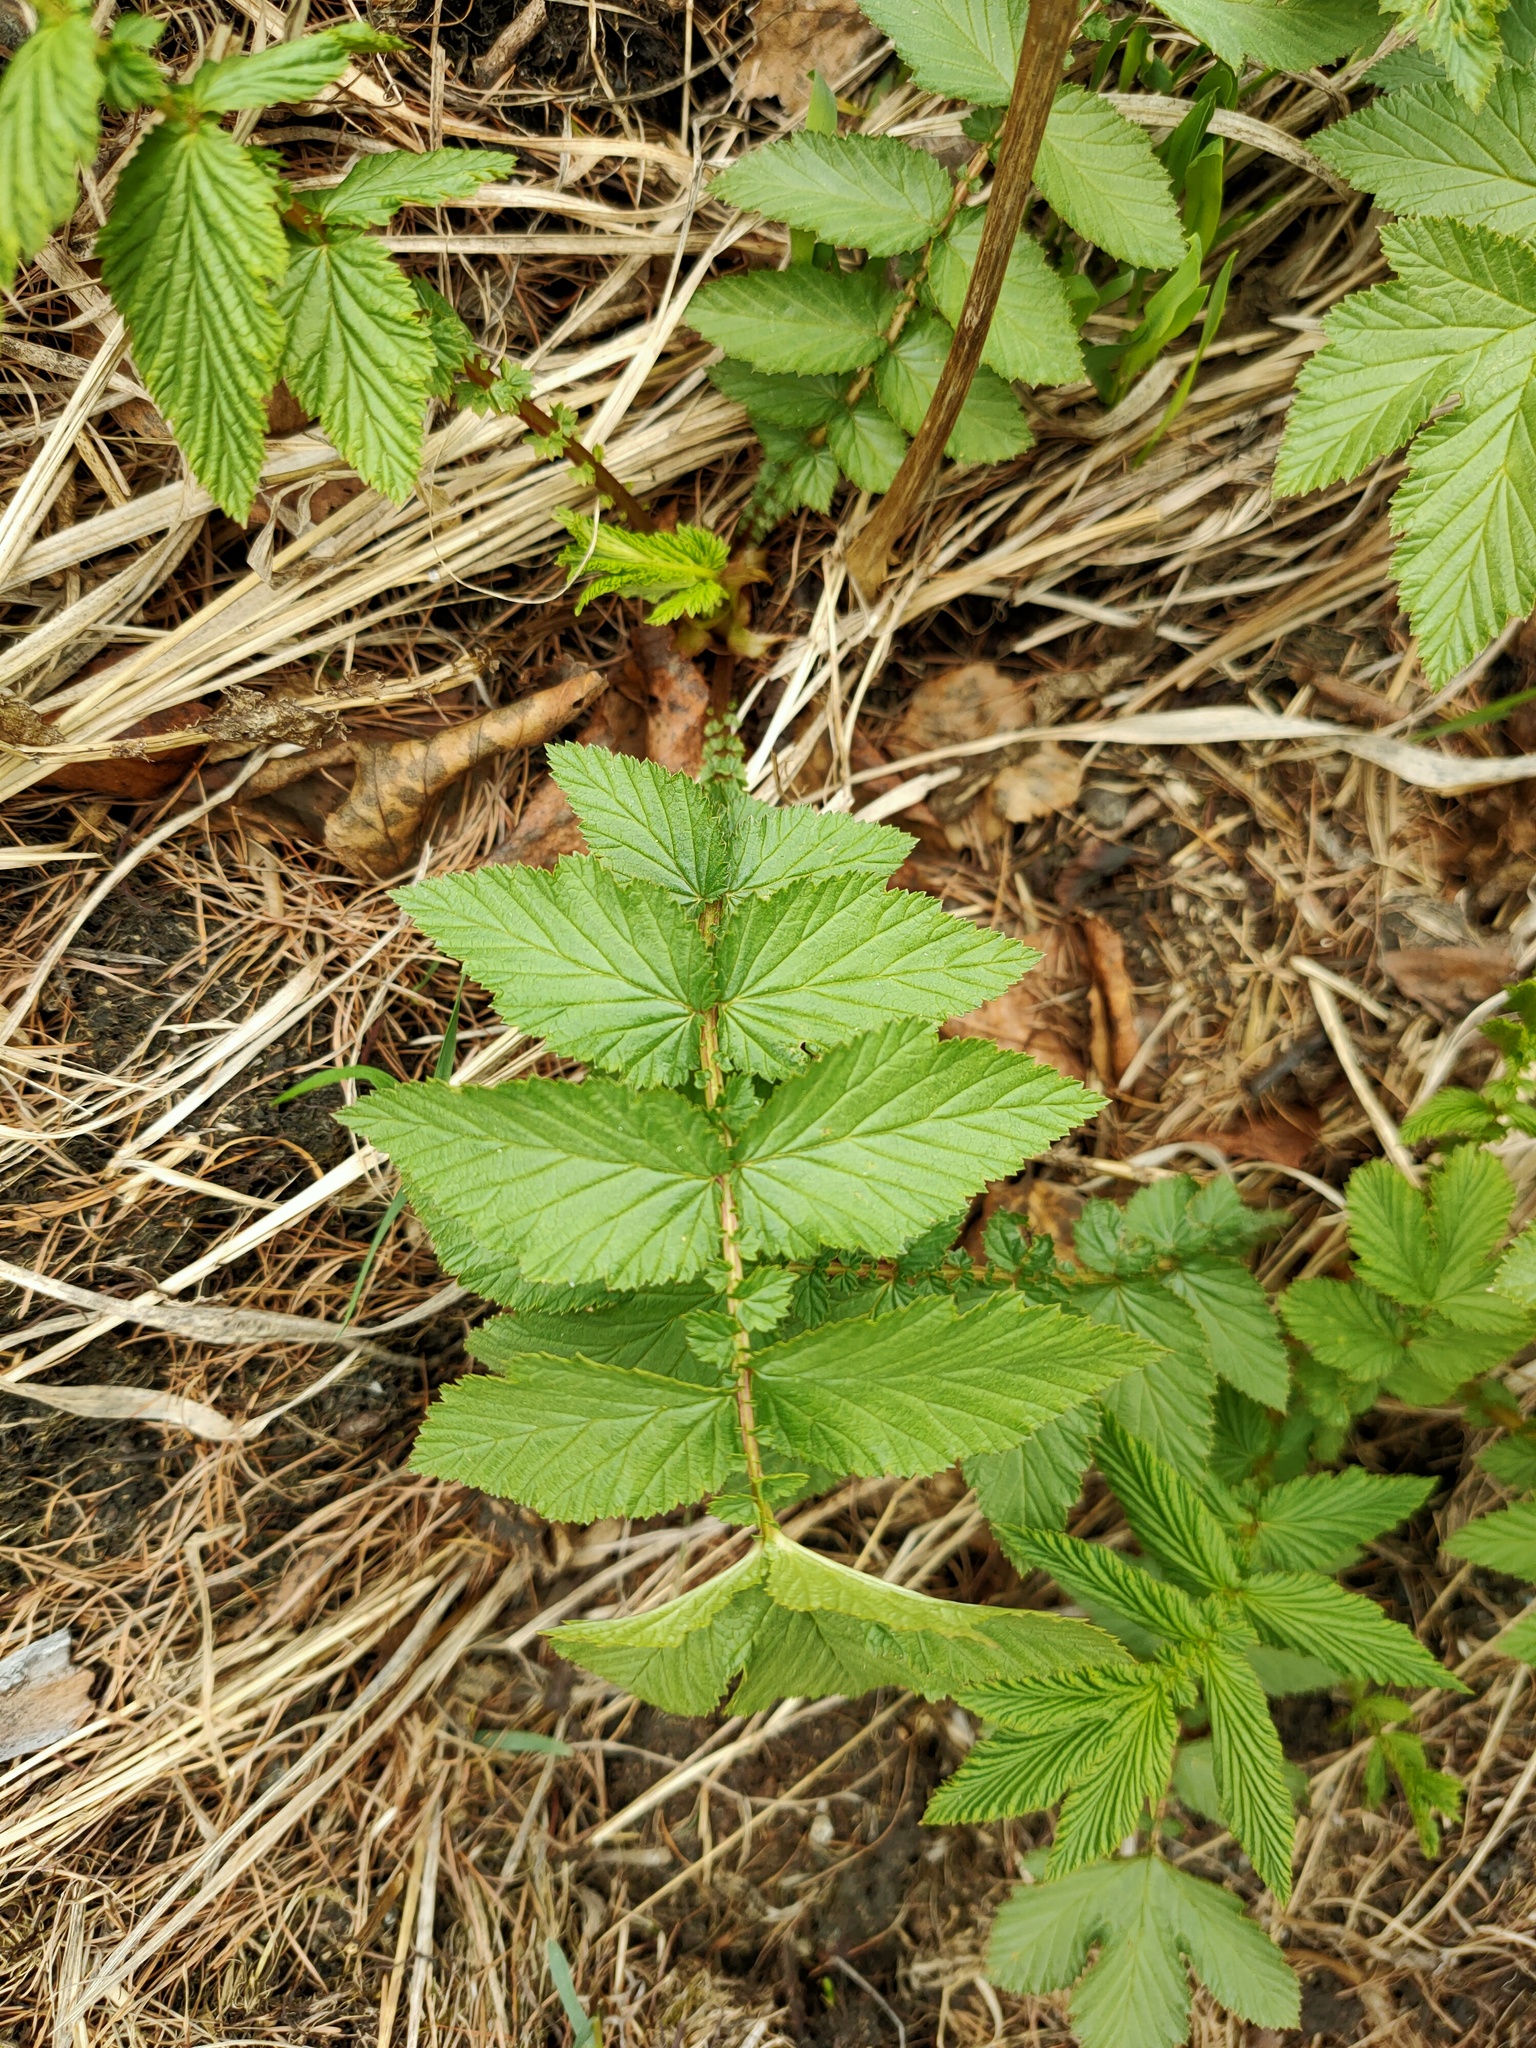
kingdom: Plantae
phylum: Tracheophyta
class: Magnoliopsida
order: Rosales
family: Rosaceae
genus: Filipendula
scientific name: Filipendula ulmaria
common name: Meadowsweet
